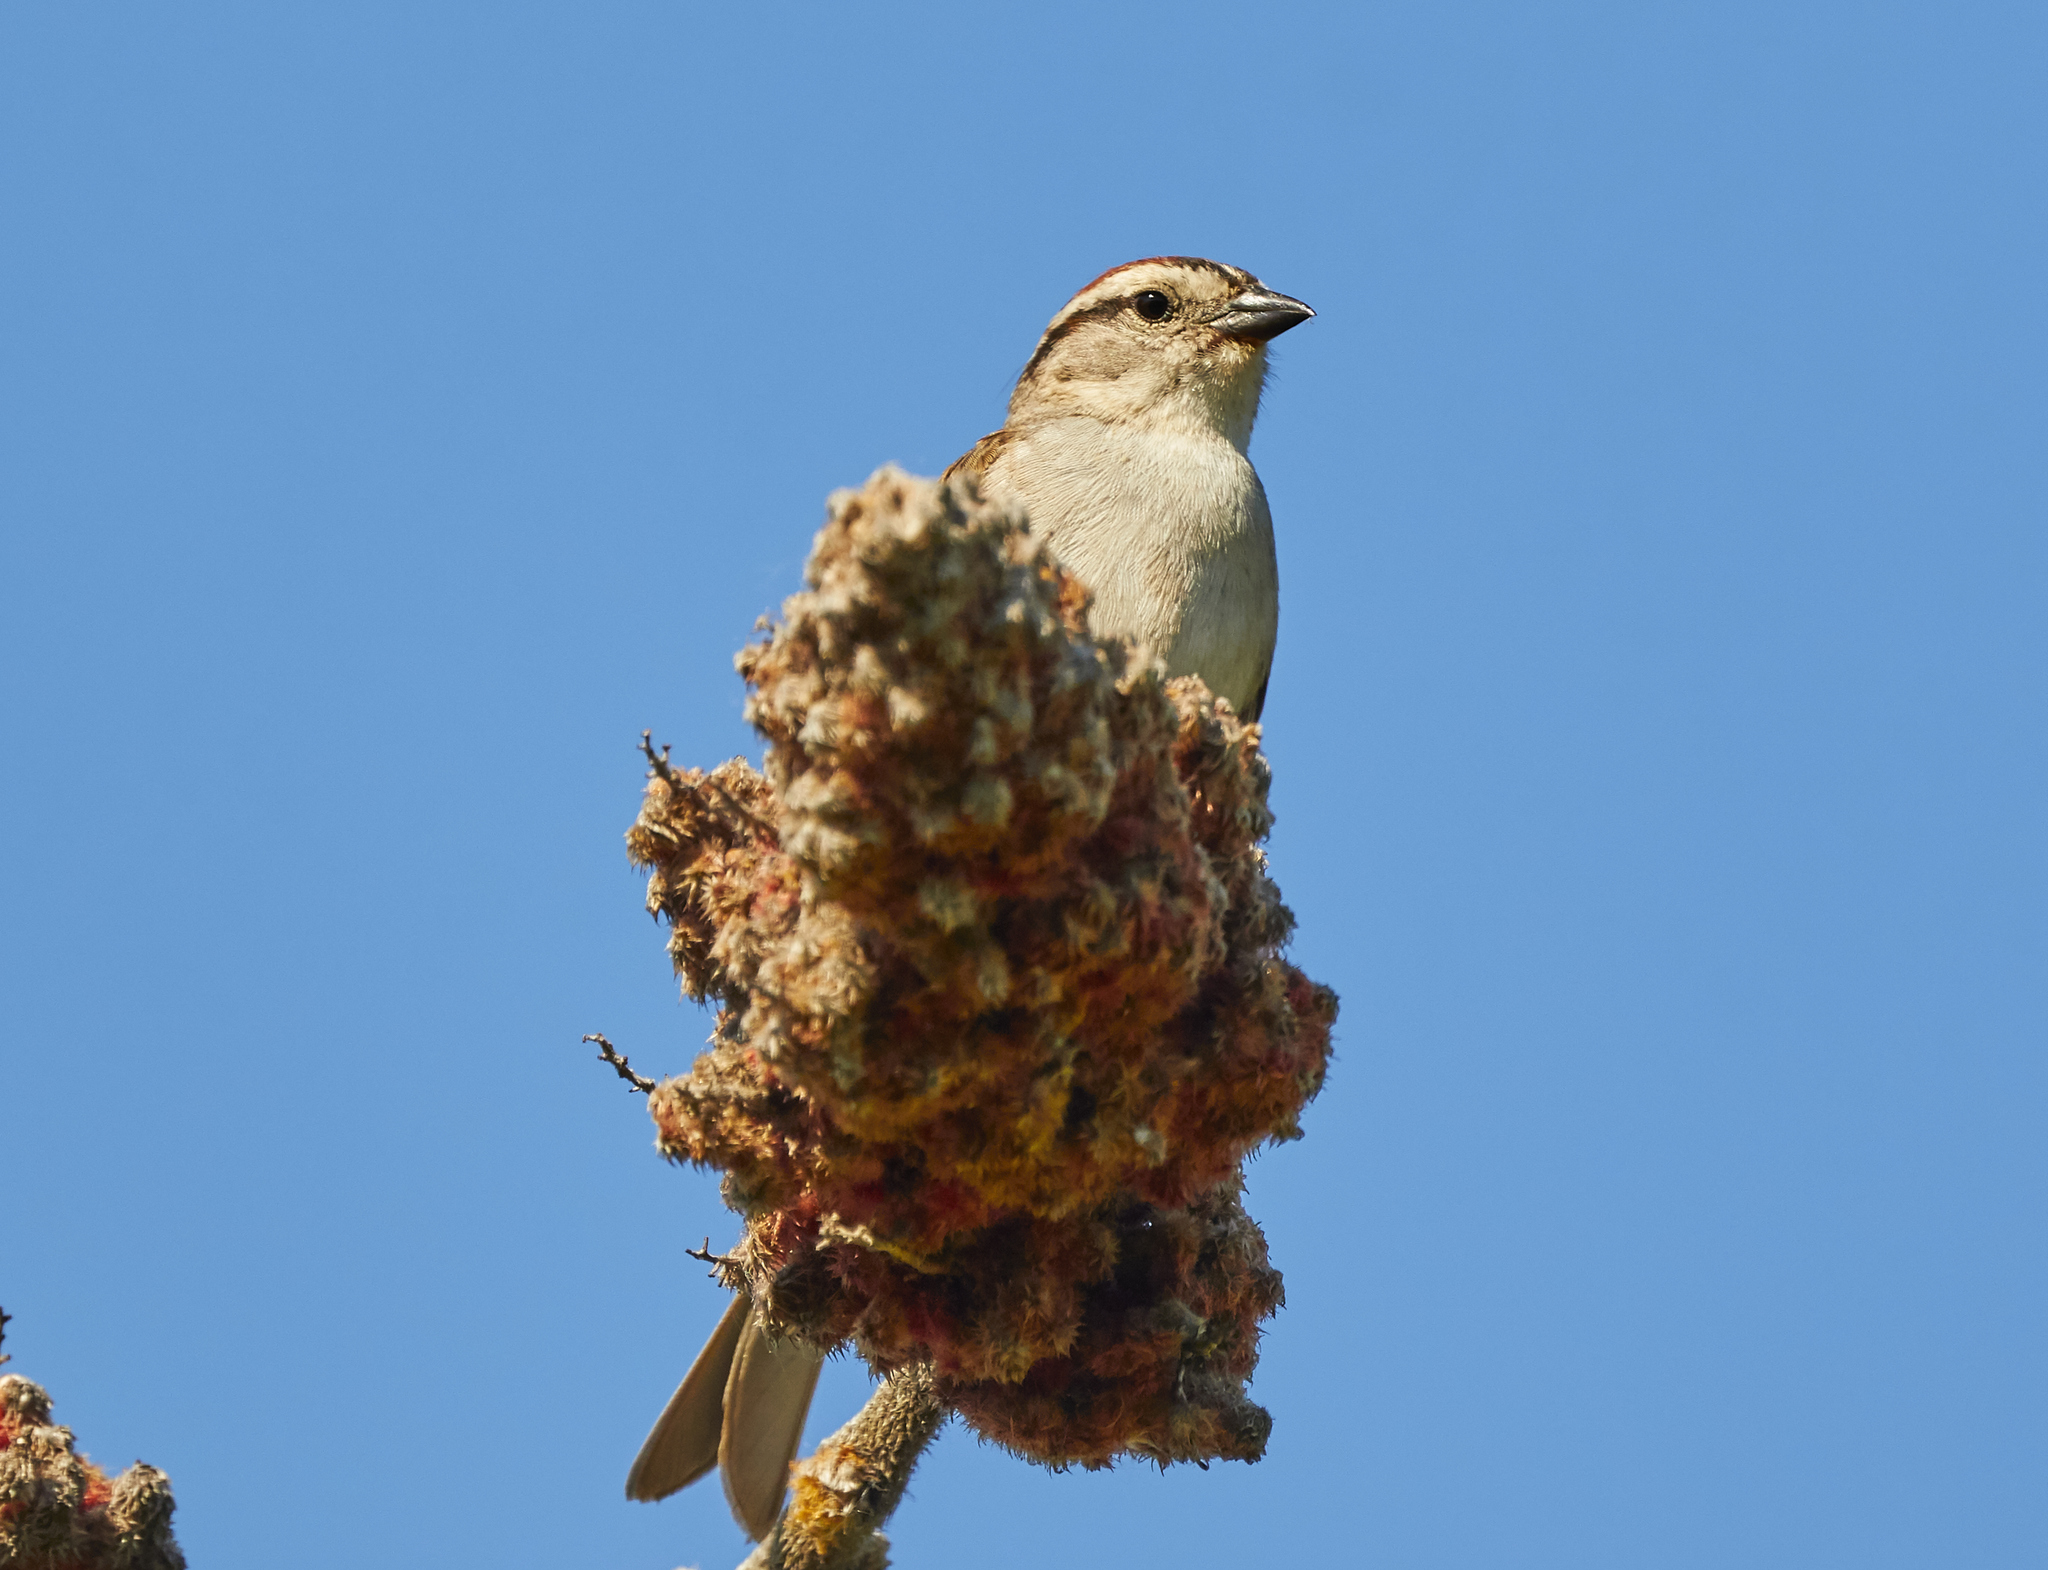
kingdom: Animalia
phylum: Chordata
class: Aves
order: Passeriformes
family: Passerellidae
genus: Spizella
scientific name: Spizella passerina
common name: Chipping sparrow
